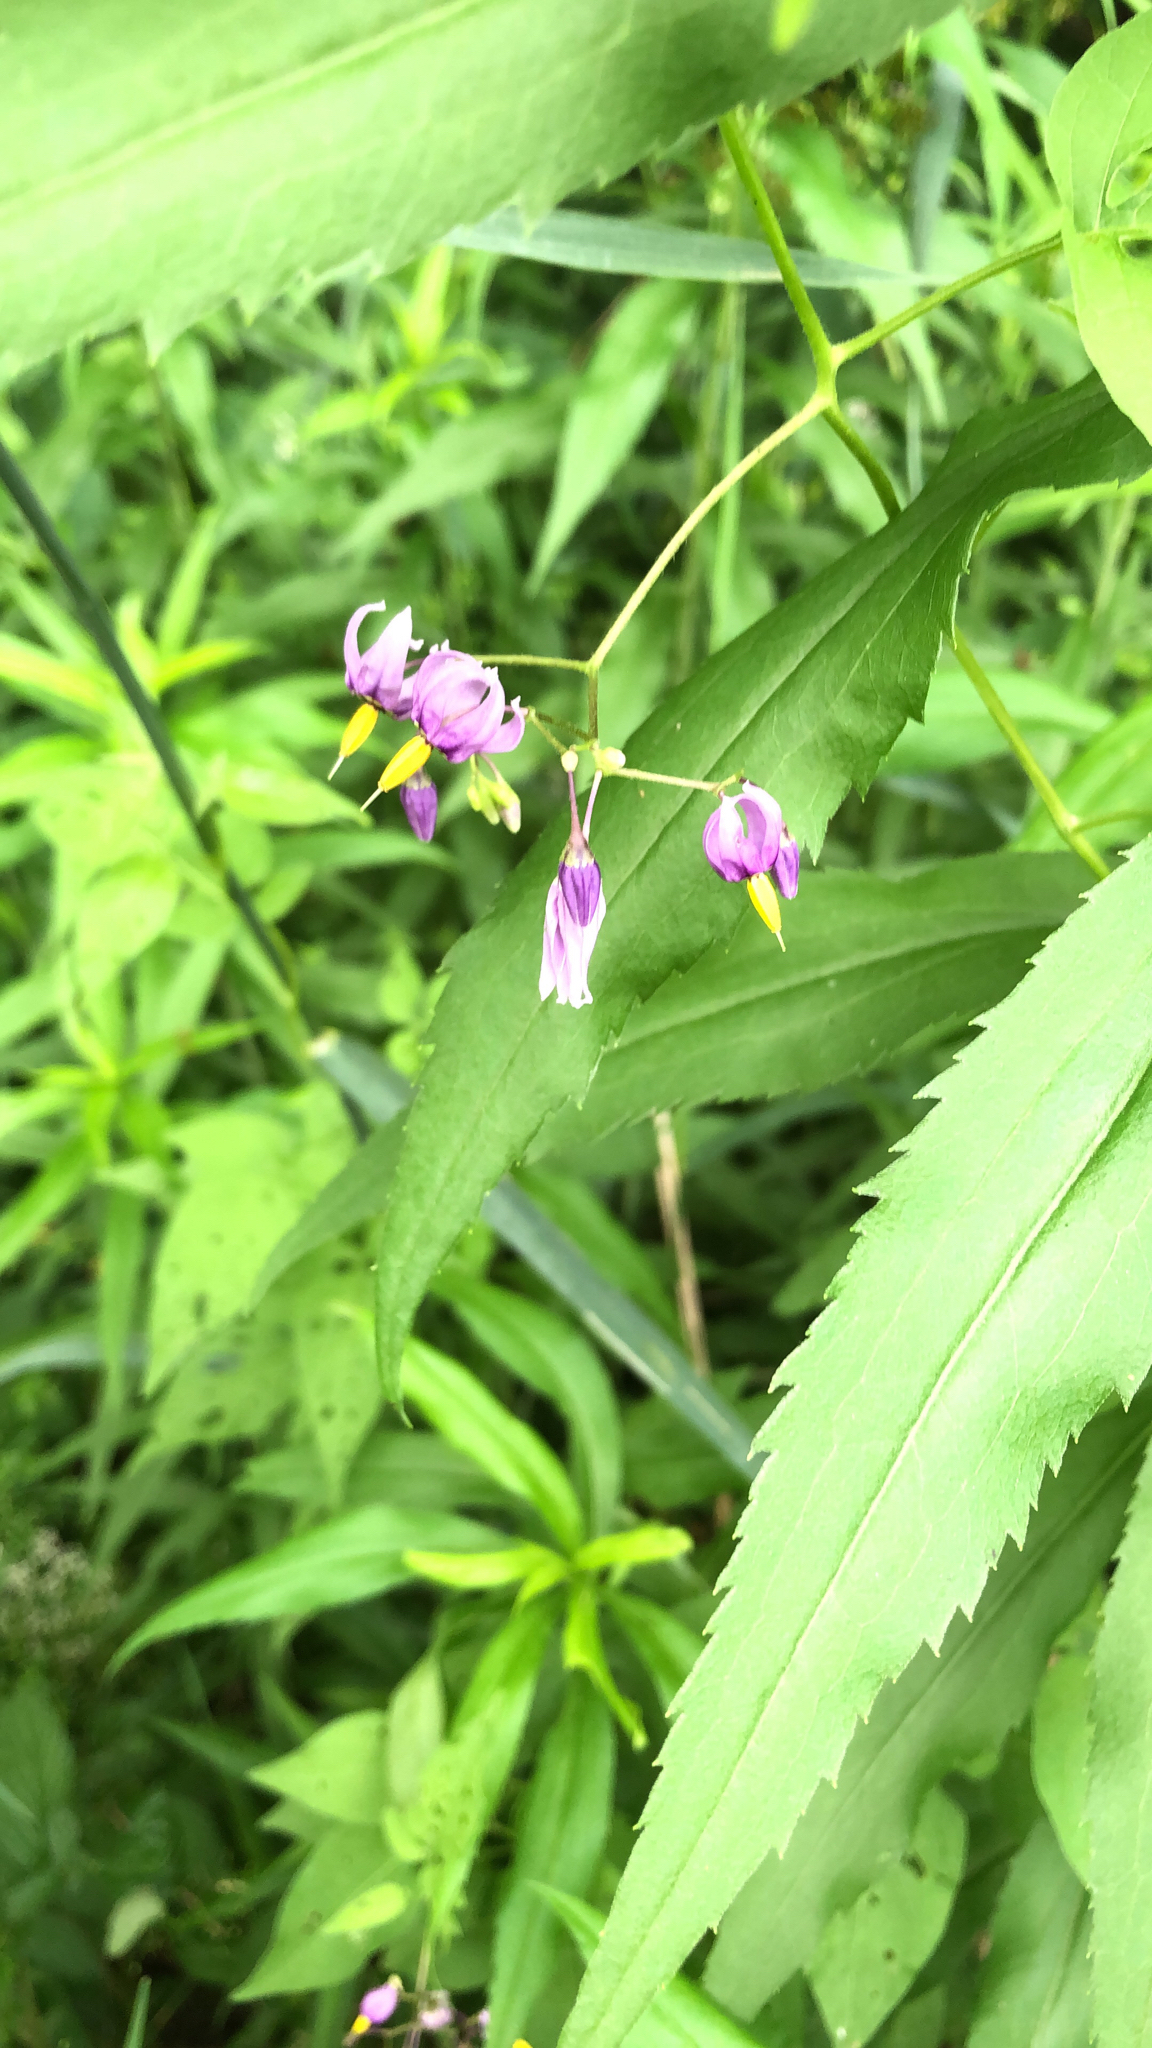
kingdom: Plantae
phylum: Tracheophyta
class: Magnoliopsida
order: Solanales
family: Solanaceae
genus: Solanum
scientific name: Solanum dulcamara
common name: Climbing nightshade
